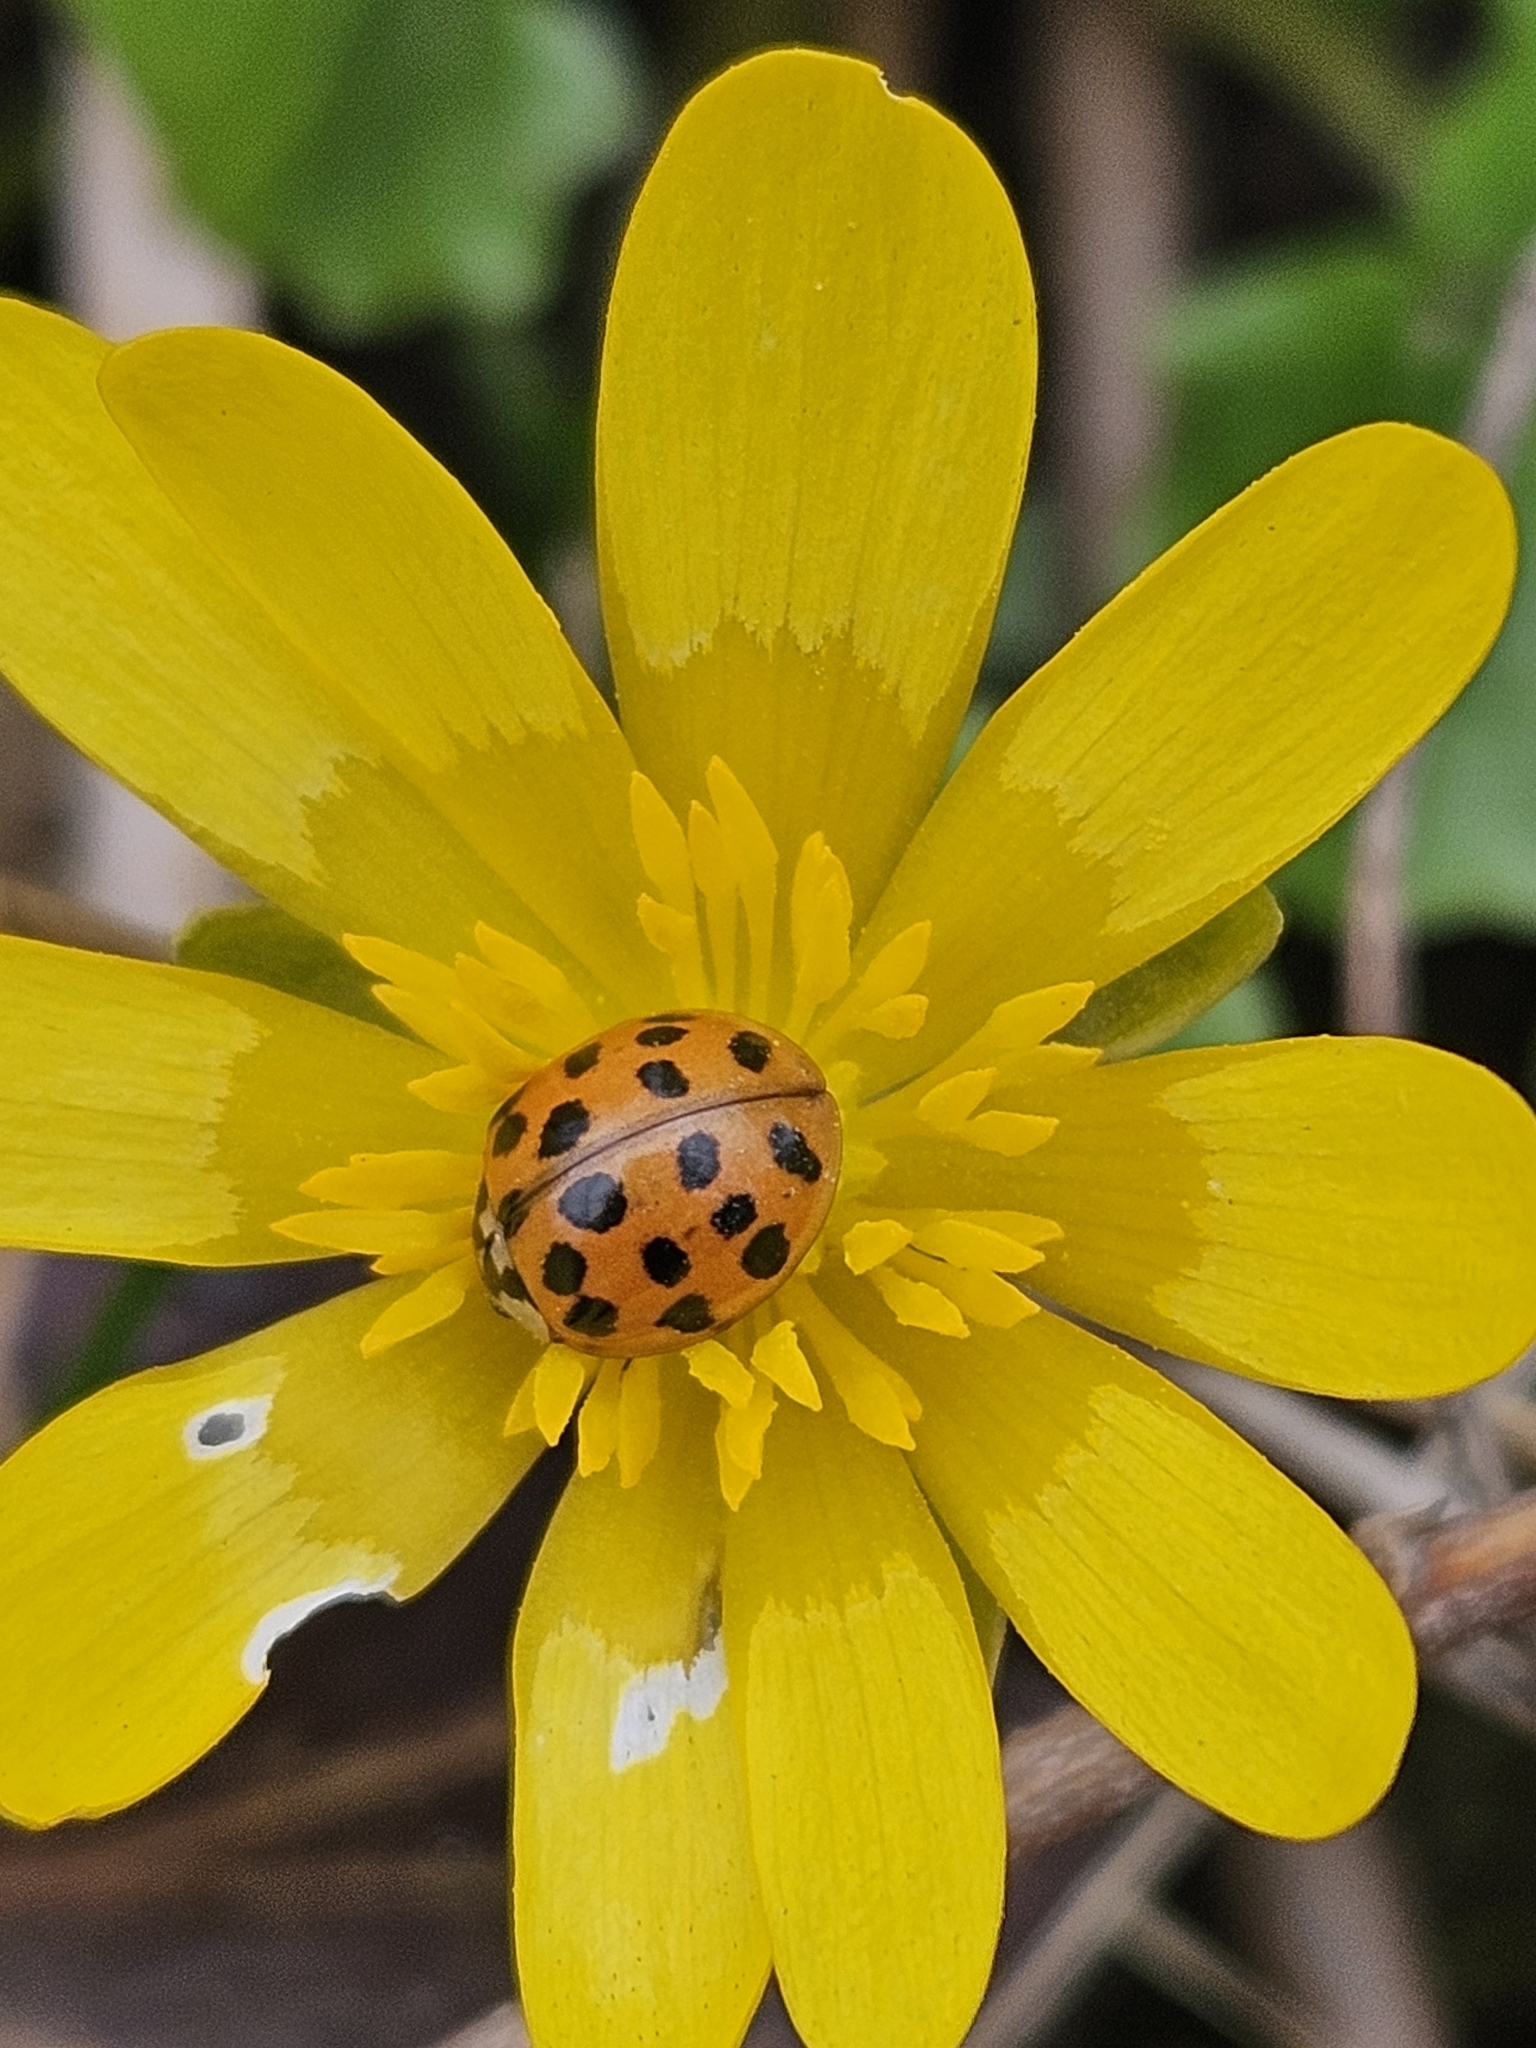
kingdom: Animalia
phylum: Arthropoda
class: Insecta
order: Coleoptera
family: Coccinellidae
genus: Harmonia
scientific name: Harmonia axyridis
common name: Harlequin ladybird
